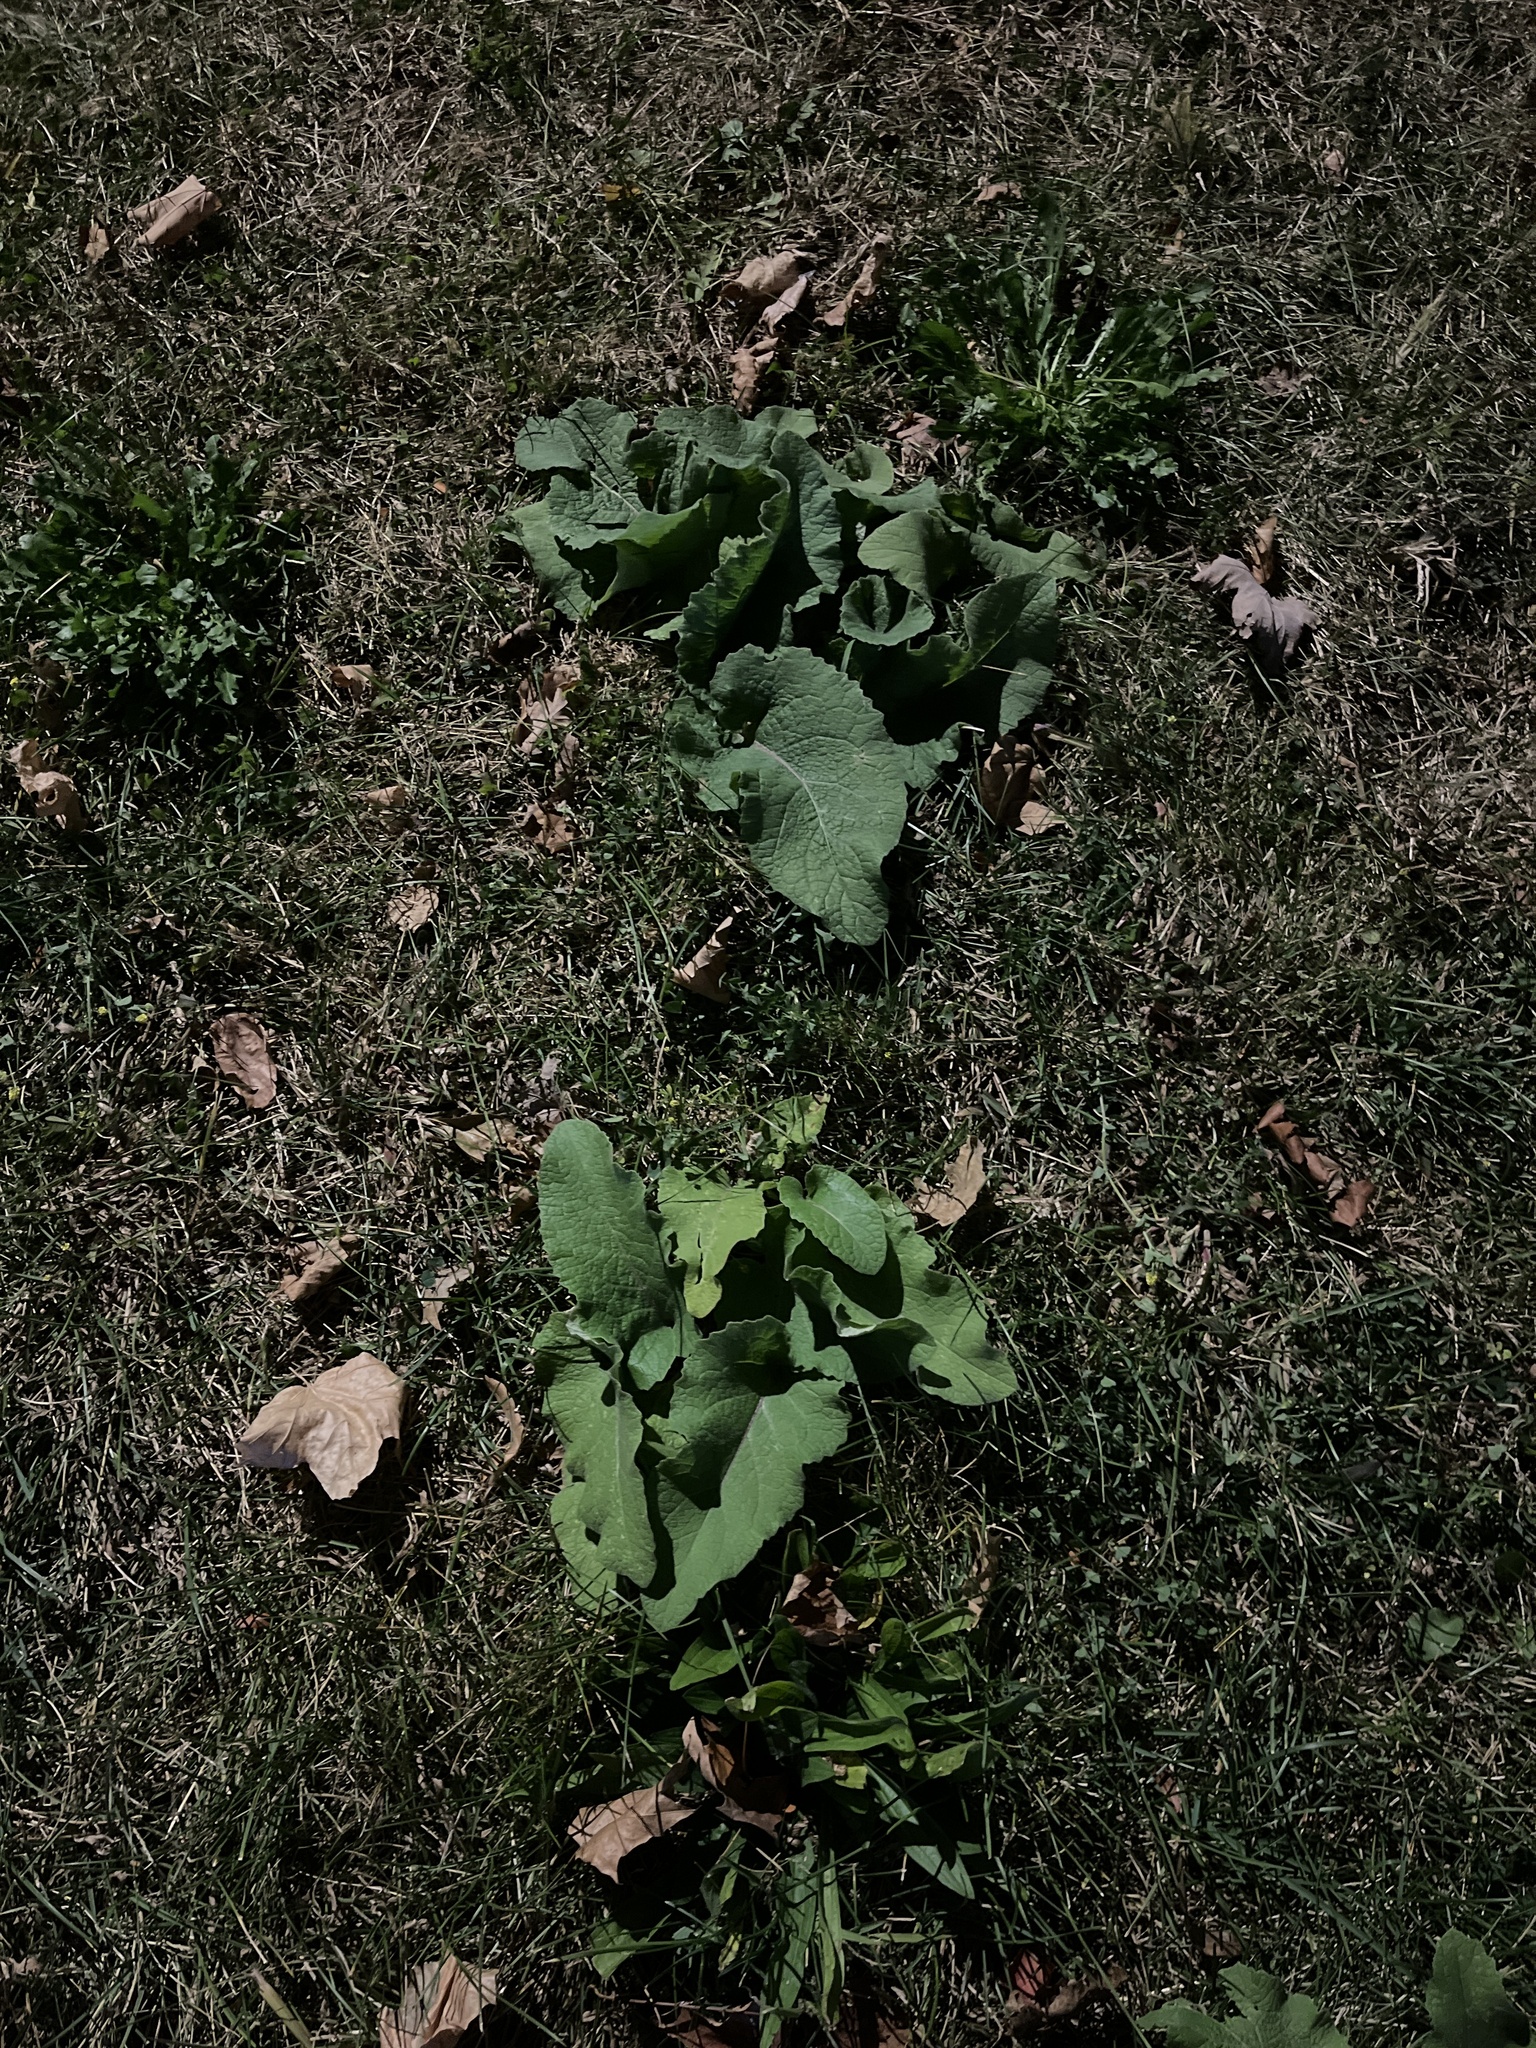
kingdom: Plantae
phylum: Tracheophyta
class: Magnoliopsida
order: Asterales
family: Asteraceae
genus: Arctium
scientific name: Arctium
